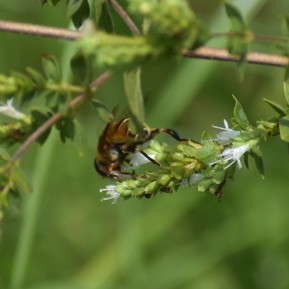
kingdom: Animalia
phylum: Arthropoda
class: Insecta
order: Diptera
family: Syrphidae
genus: Palpada
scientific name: Palpada vinetorum
